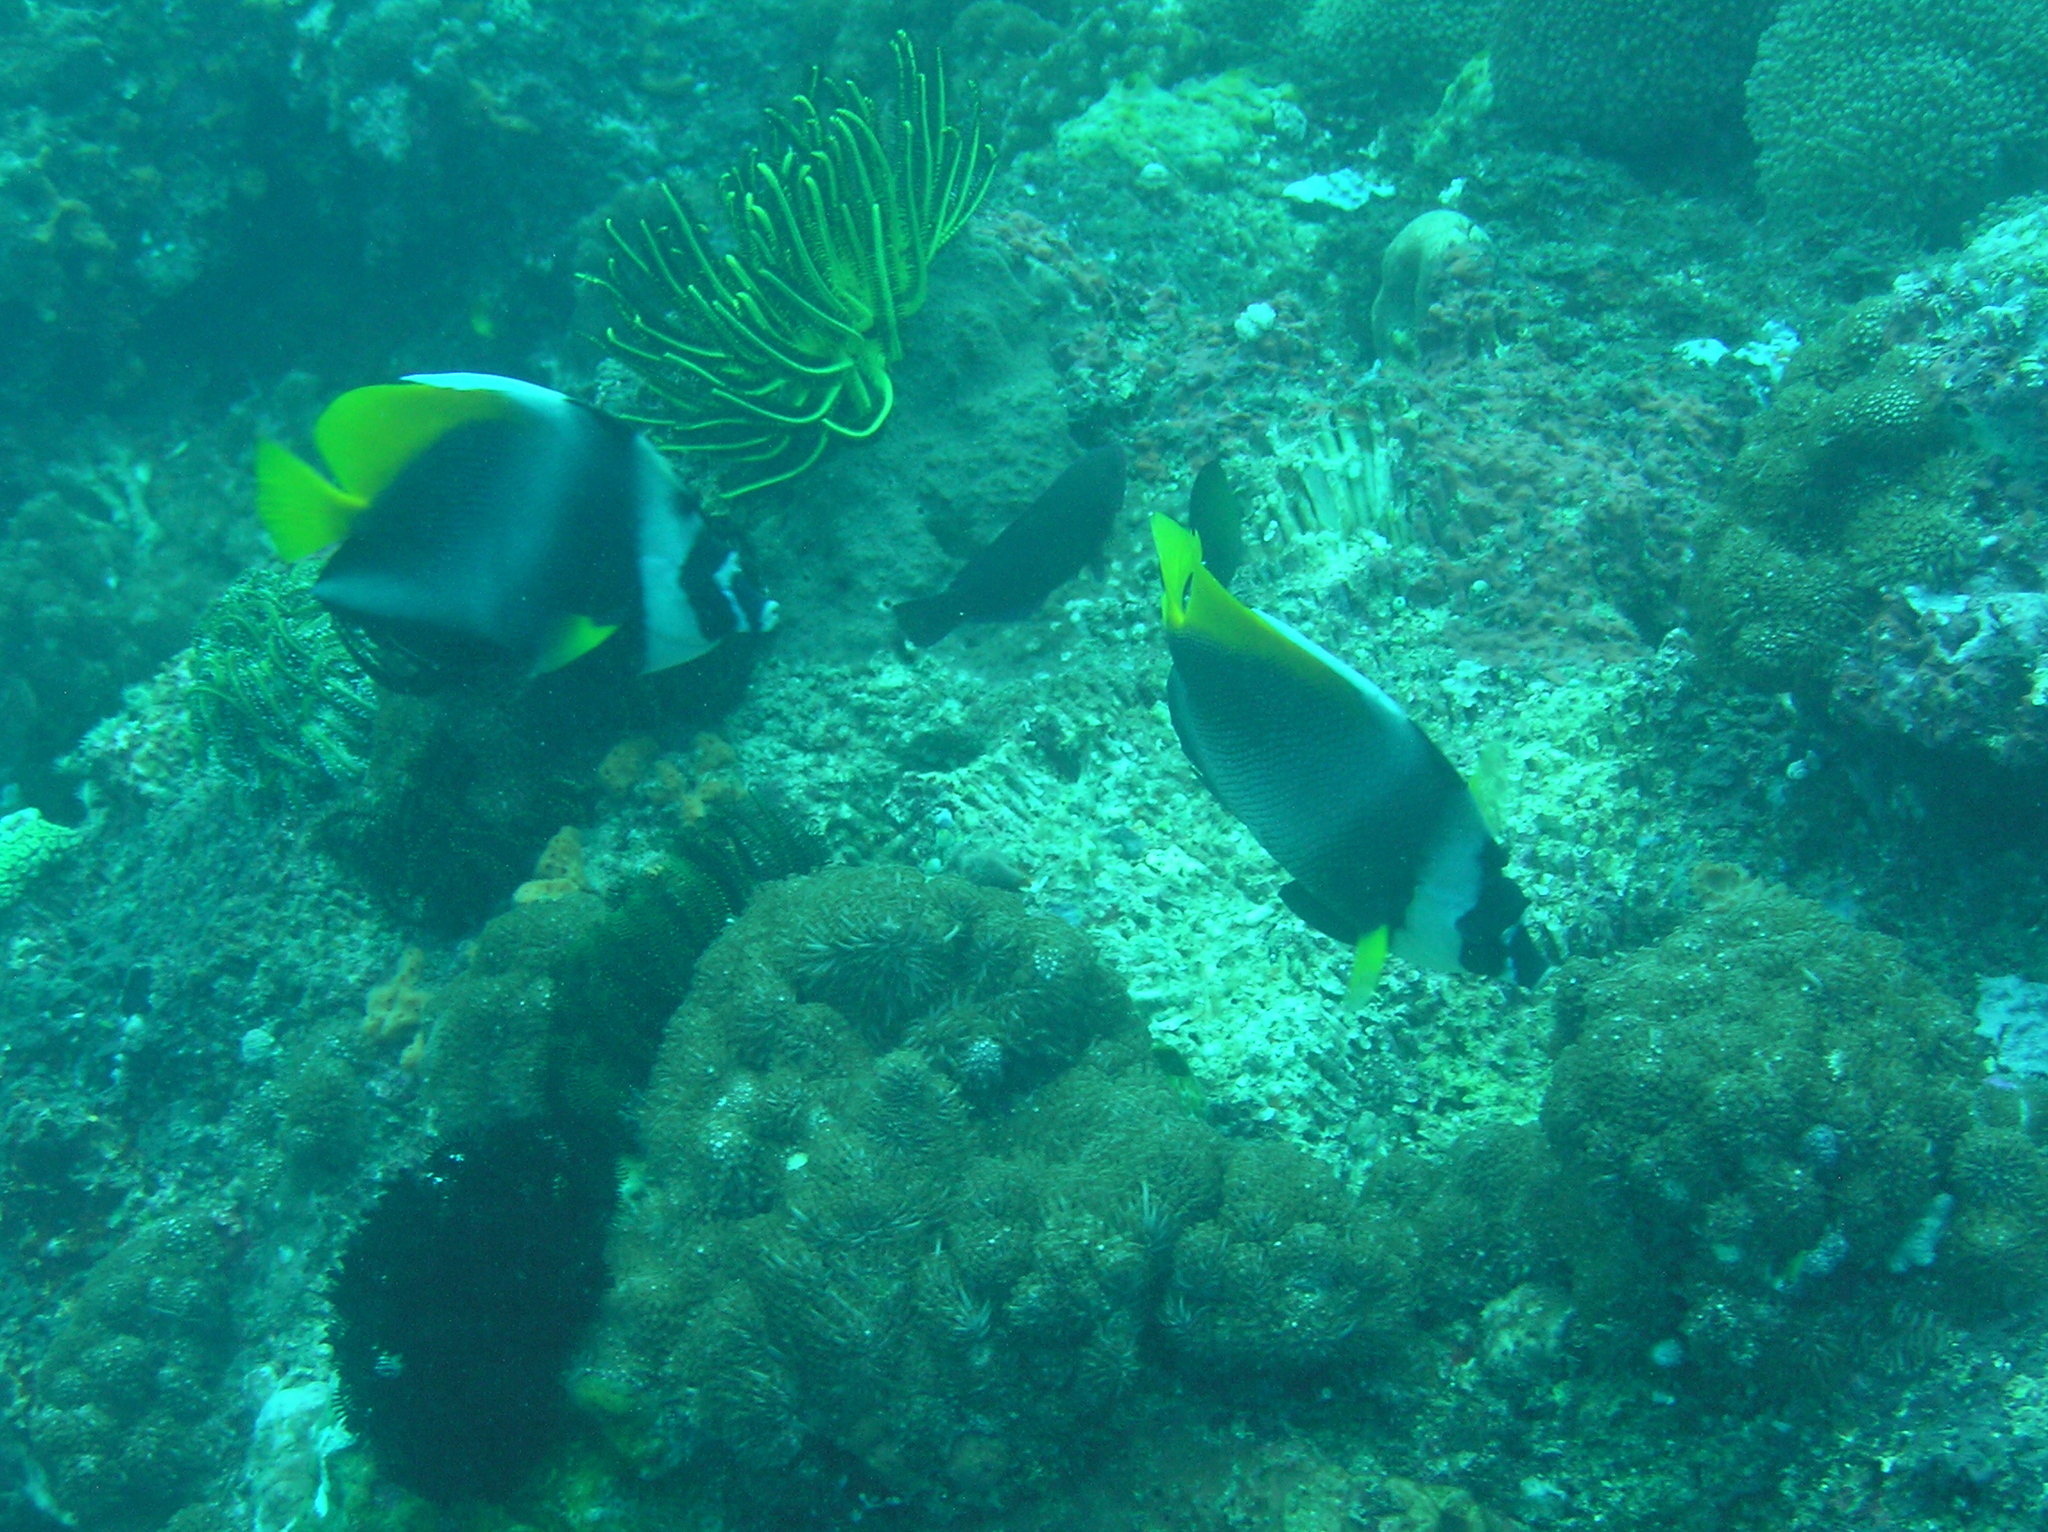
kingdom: Animalia
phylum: Chordata
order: Perciformes
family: Chaetodontidae
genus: Heniochus
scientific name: Heniochus singularius
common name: Singular bannerfish
